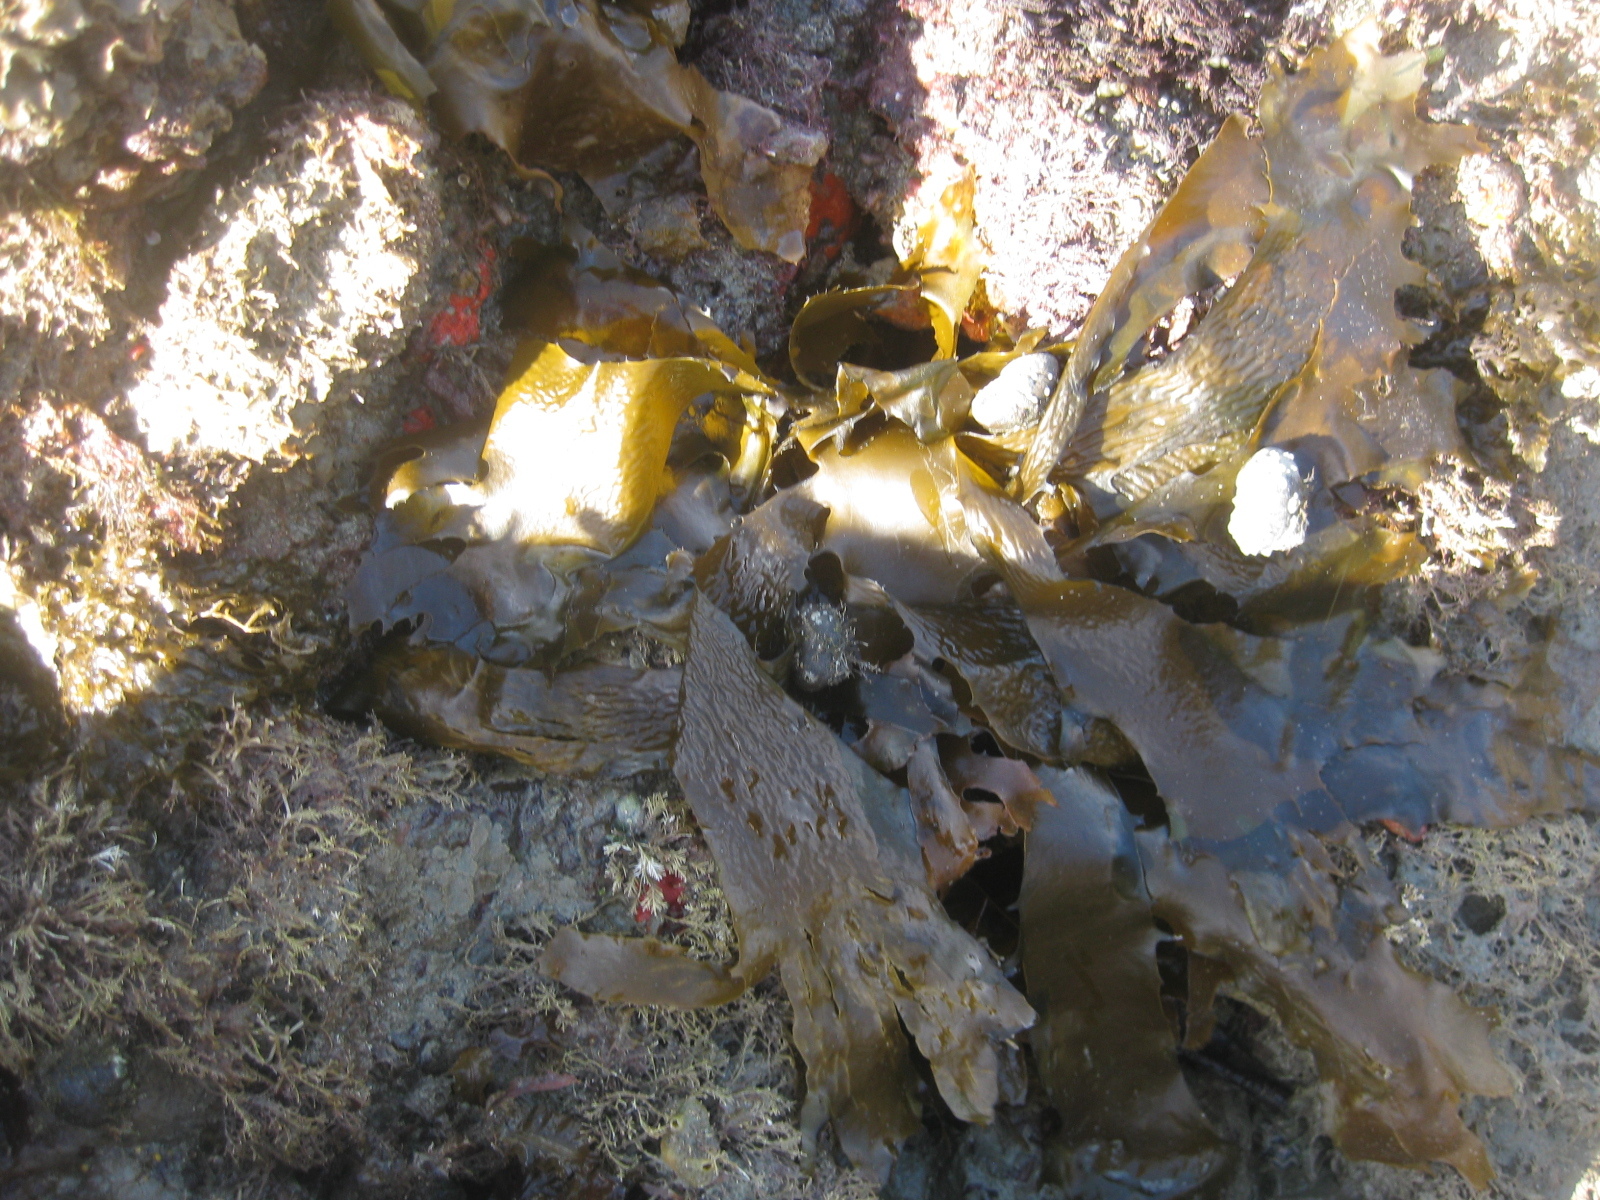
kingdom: Chromista
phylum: Ochrophyta
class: Phaeophyceae
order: Laminariales
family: Lessoniaceae
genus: Ecklonia
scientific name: Ecklonia radiata
